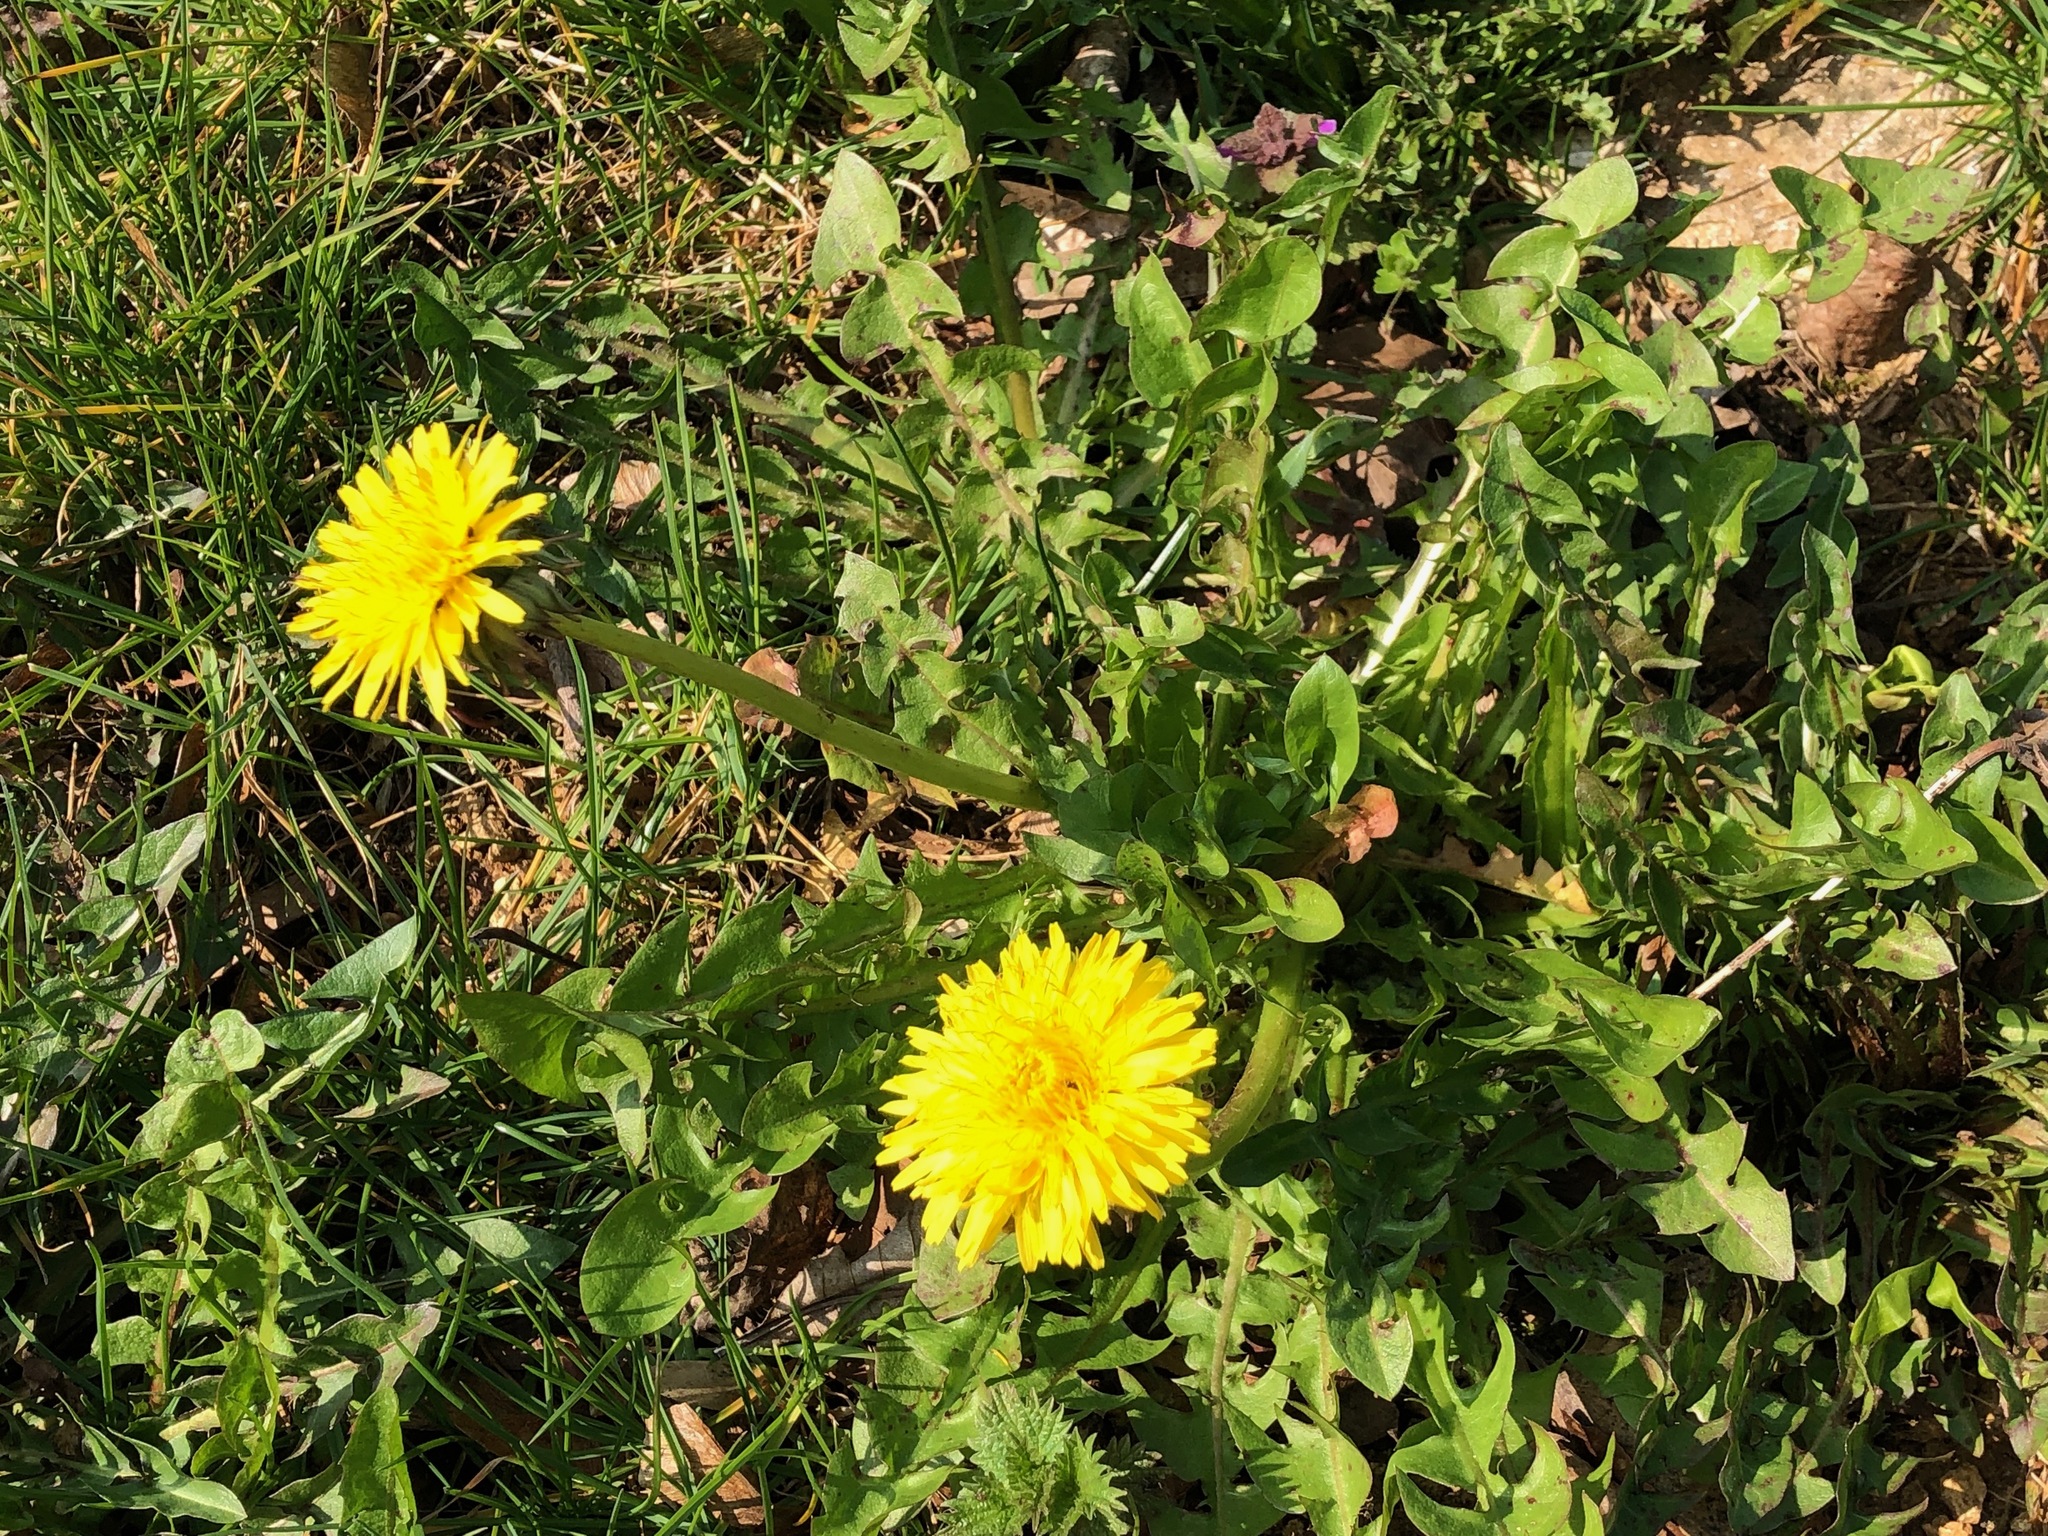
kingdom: Plantae
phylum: Tracheophyta
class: Magnoliopsida
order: Asterales
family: Asteraceae
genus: Taraxacum
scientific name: Taraxacum officinale
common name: Common dandelion
